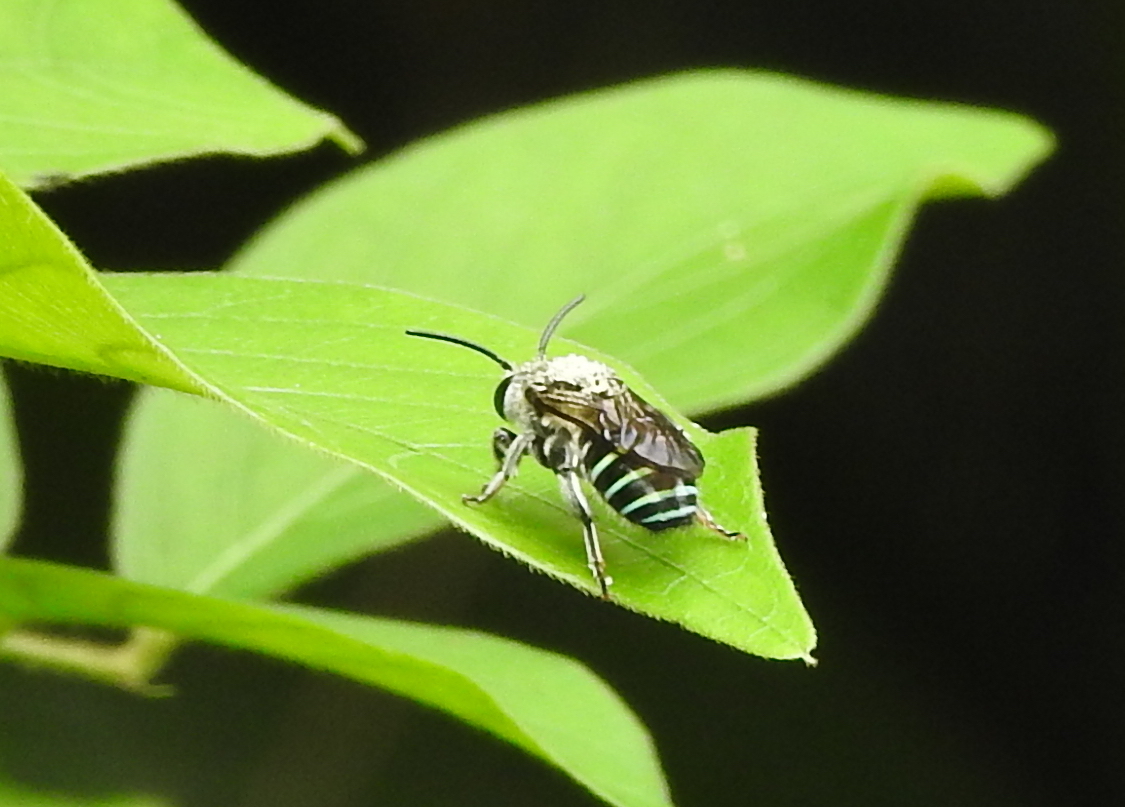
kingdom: Animalia
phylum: Arthropoda
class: Insecta
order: Hymenoptera
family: Halictidae
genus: Nomia
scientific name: Nomia incerta
